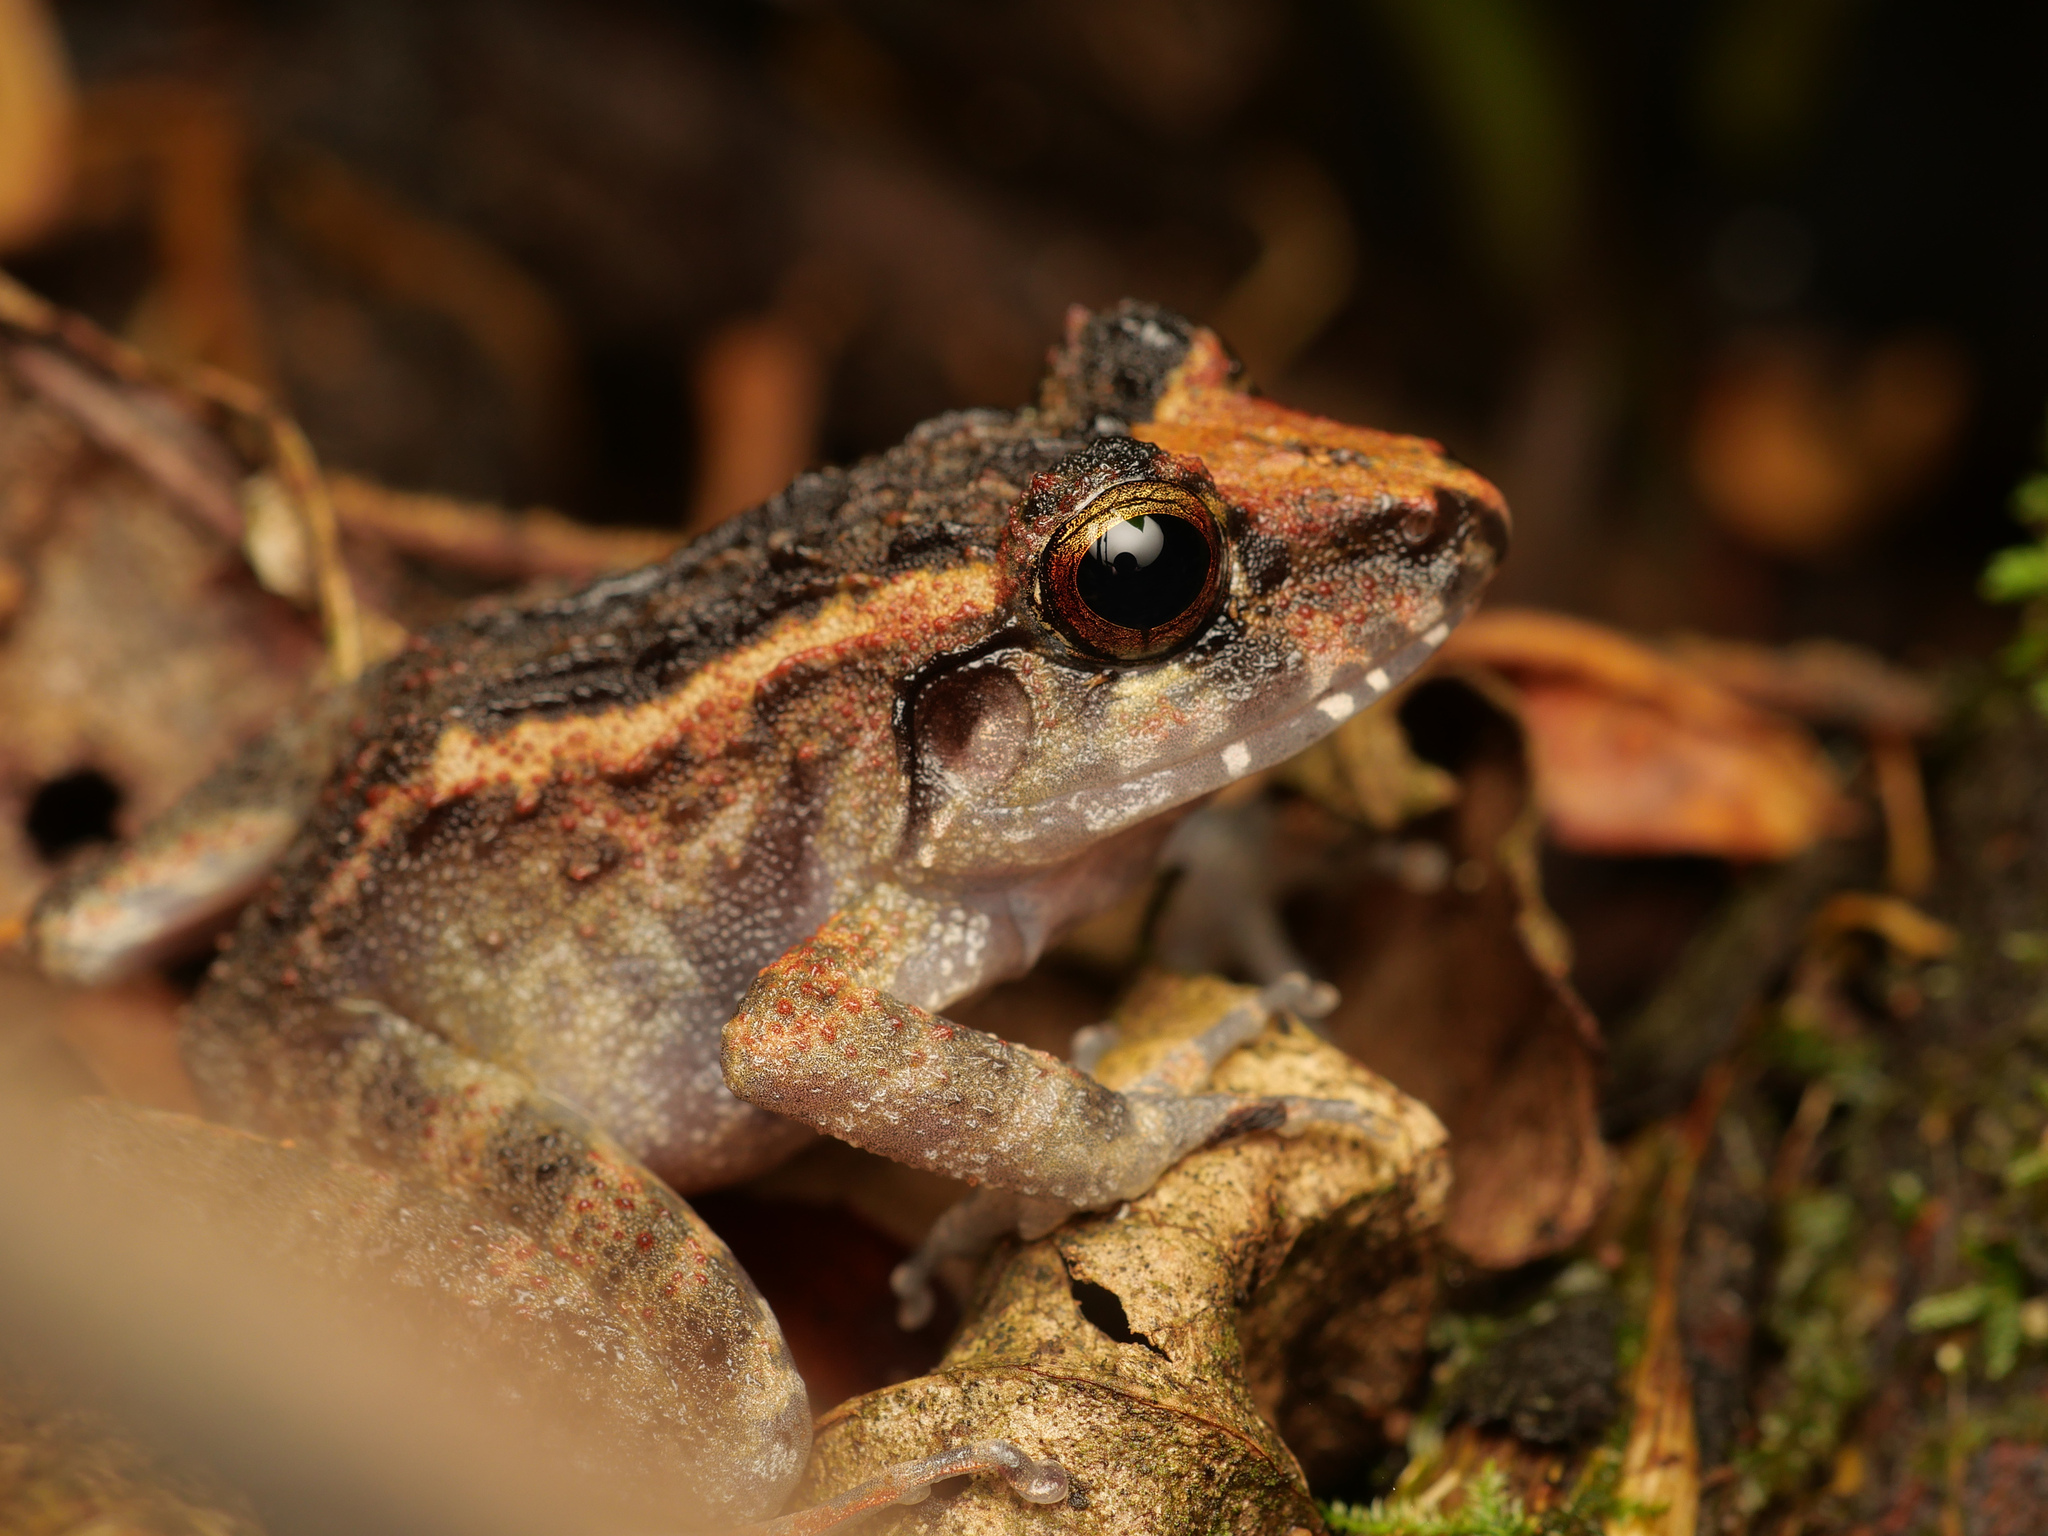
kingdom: Animalia
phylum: Chordata
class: Amphibia
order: Anura
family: Ceratobatrachidae
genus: Cornufer
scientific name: Cornufer papuensis
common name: Papua wrinkled ground frog
